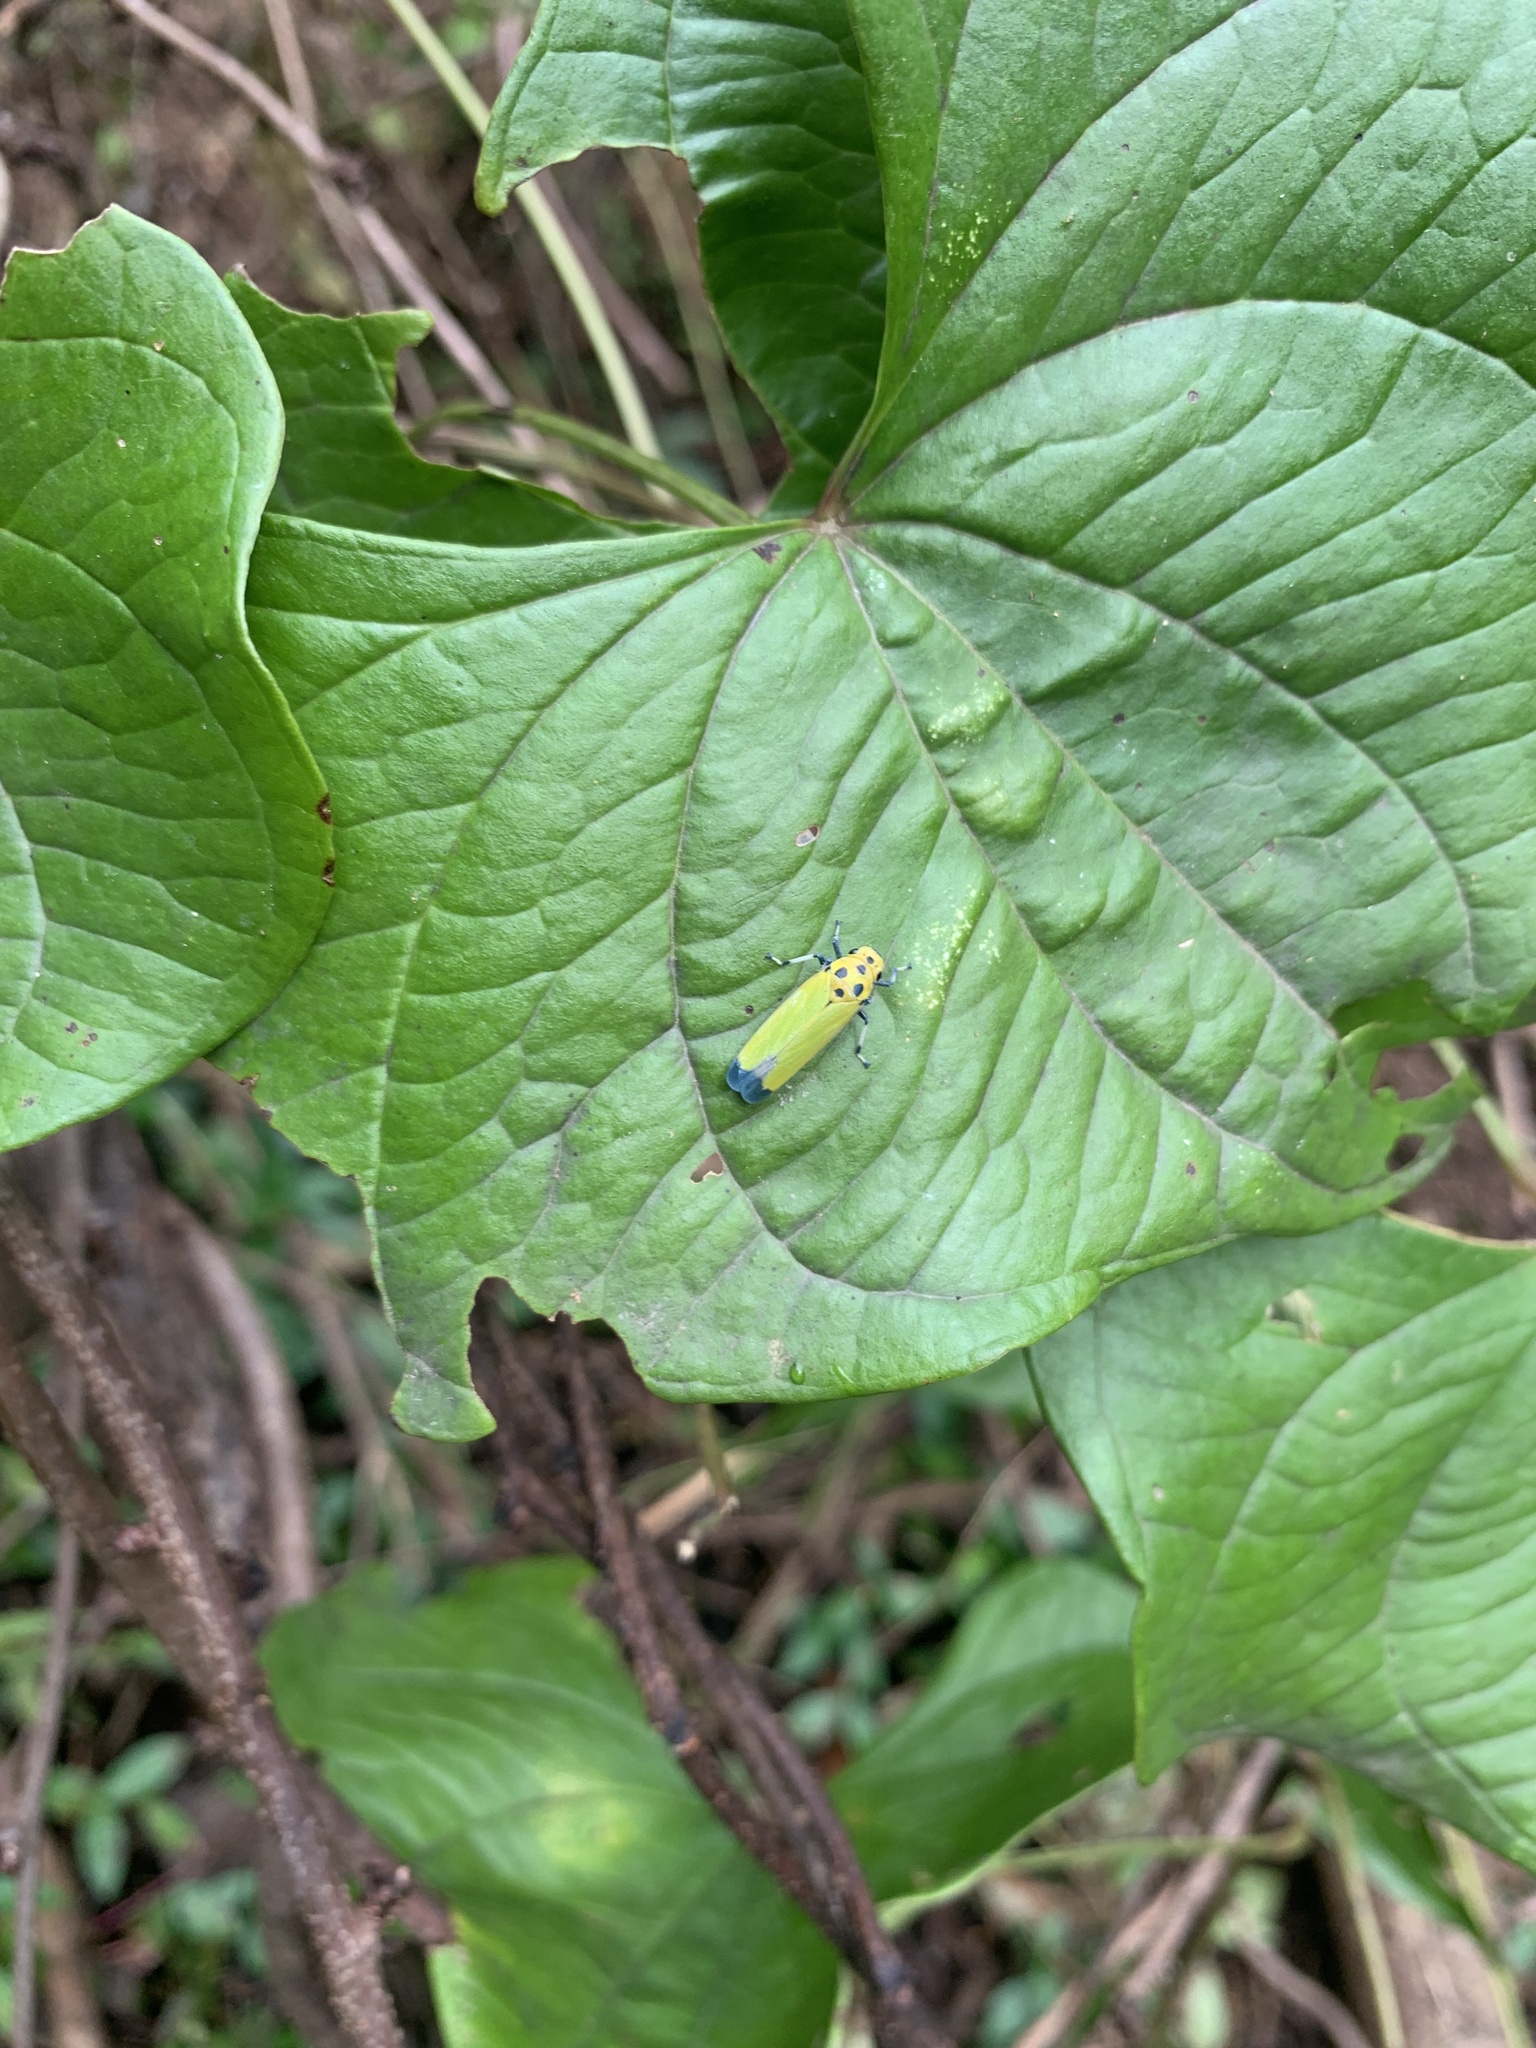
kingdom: Animalia
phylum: Arthropoda
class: Insecta
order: Hemiptera
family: Cicadellidae
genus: Bothrogonia
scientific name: Bothrogonia ferruginea
